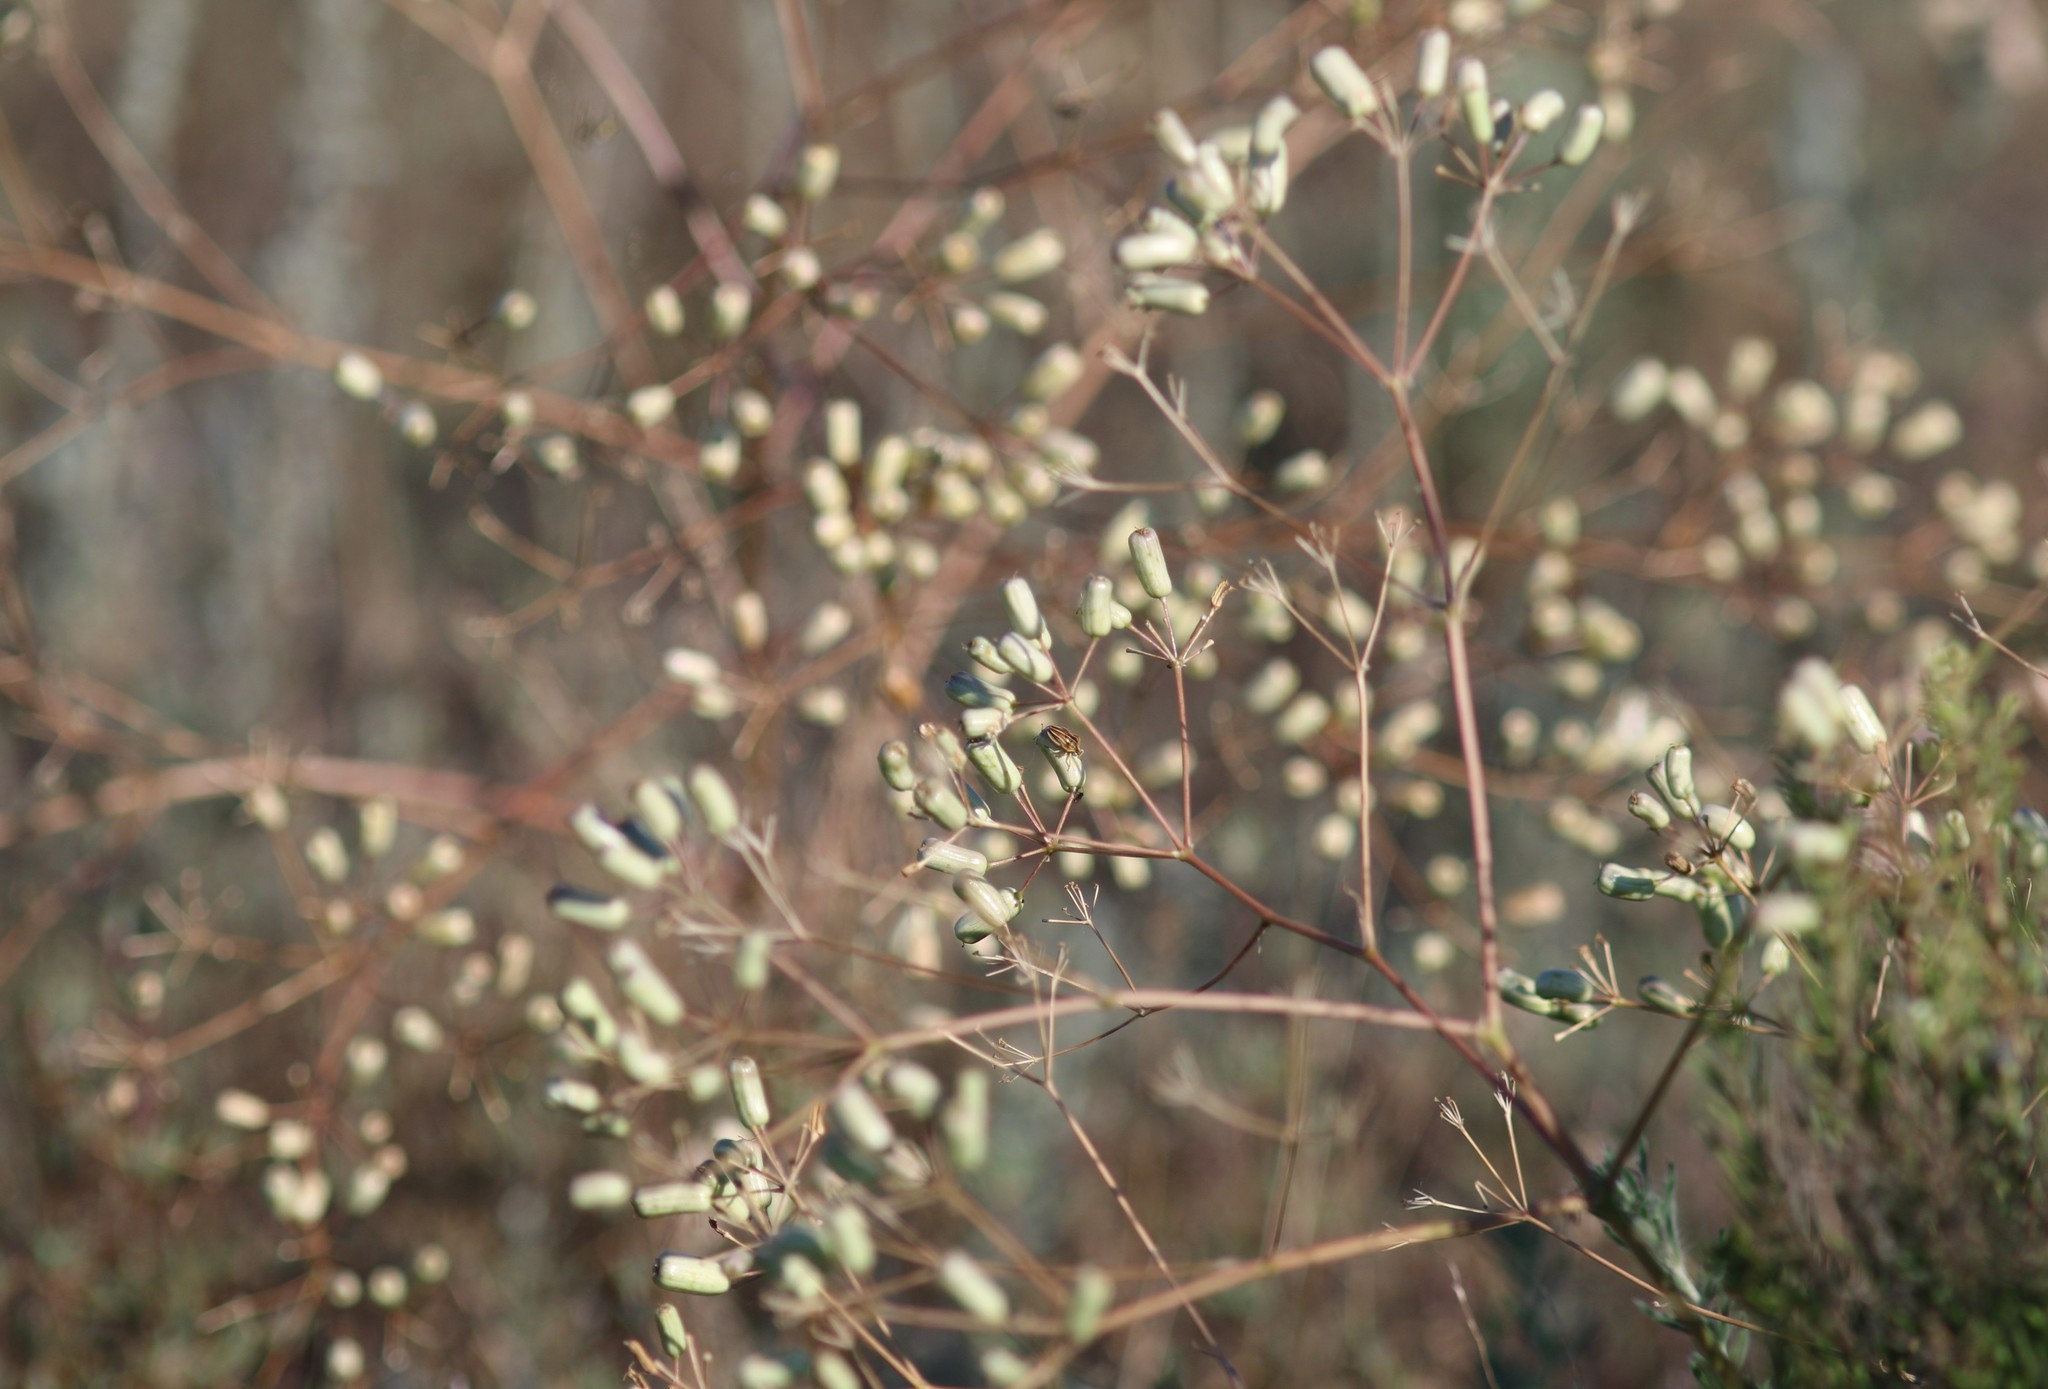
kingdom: Plantae
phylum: Tracheophyta
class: Magnoliopsida
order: Apiales
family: Apiaceae
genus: Prangos
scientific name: Prangos odontalgica
